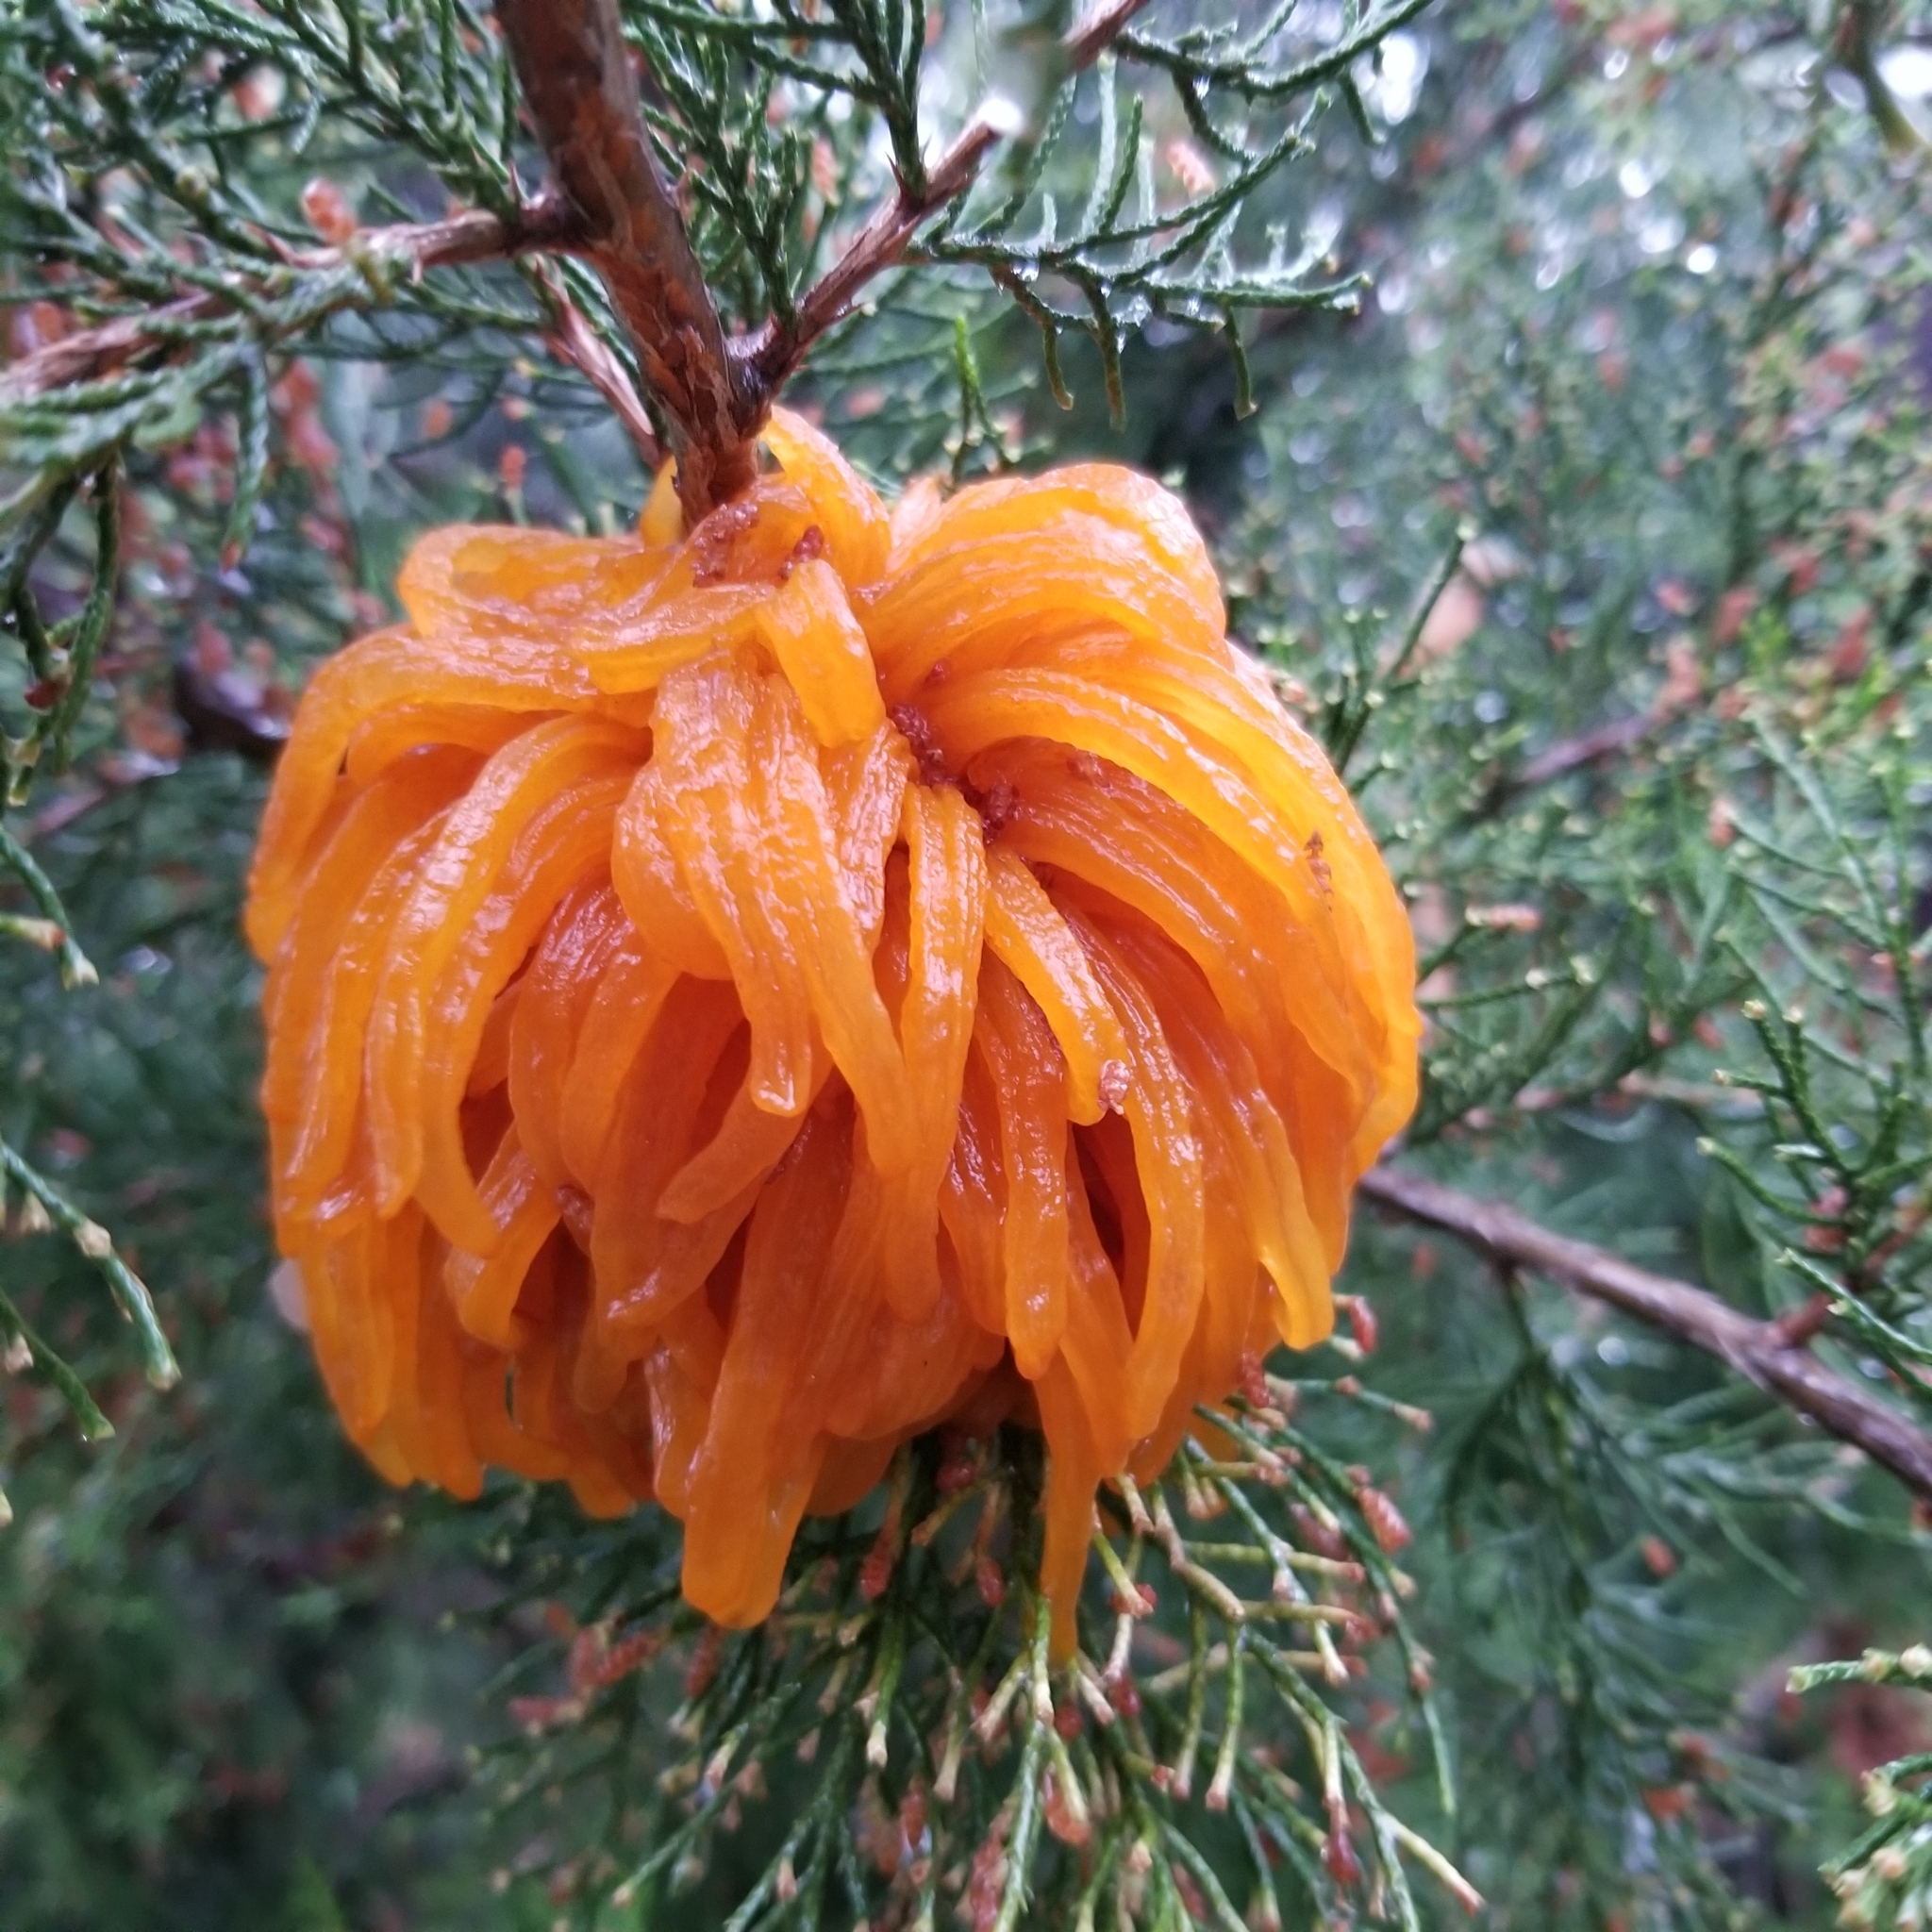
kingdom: Fungi
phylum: Basidiomycota
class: Pucciniomycetes
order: Pucciniales
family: Gymnosporangiaceae
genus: Gymnosporangium
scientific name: Gymnosporangium juniperi-virginianae
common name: Juniper-apple rust
